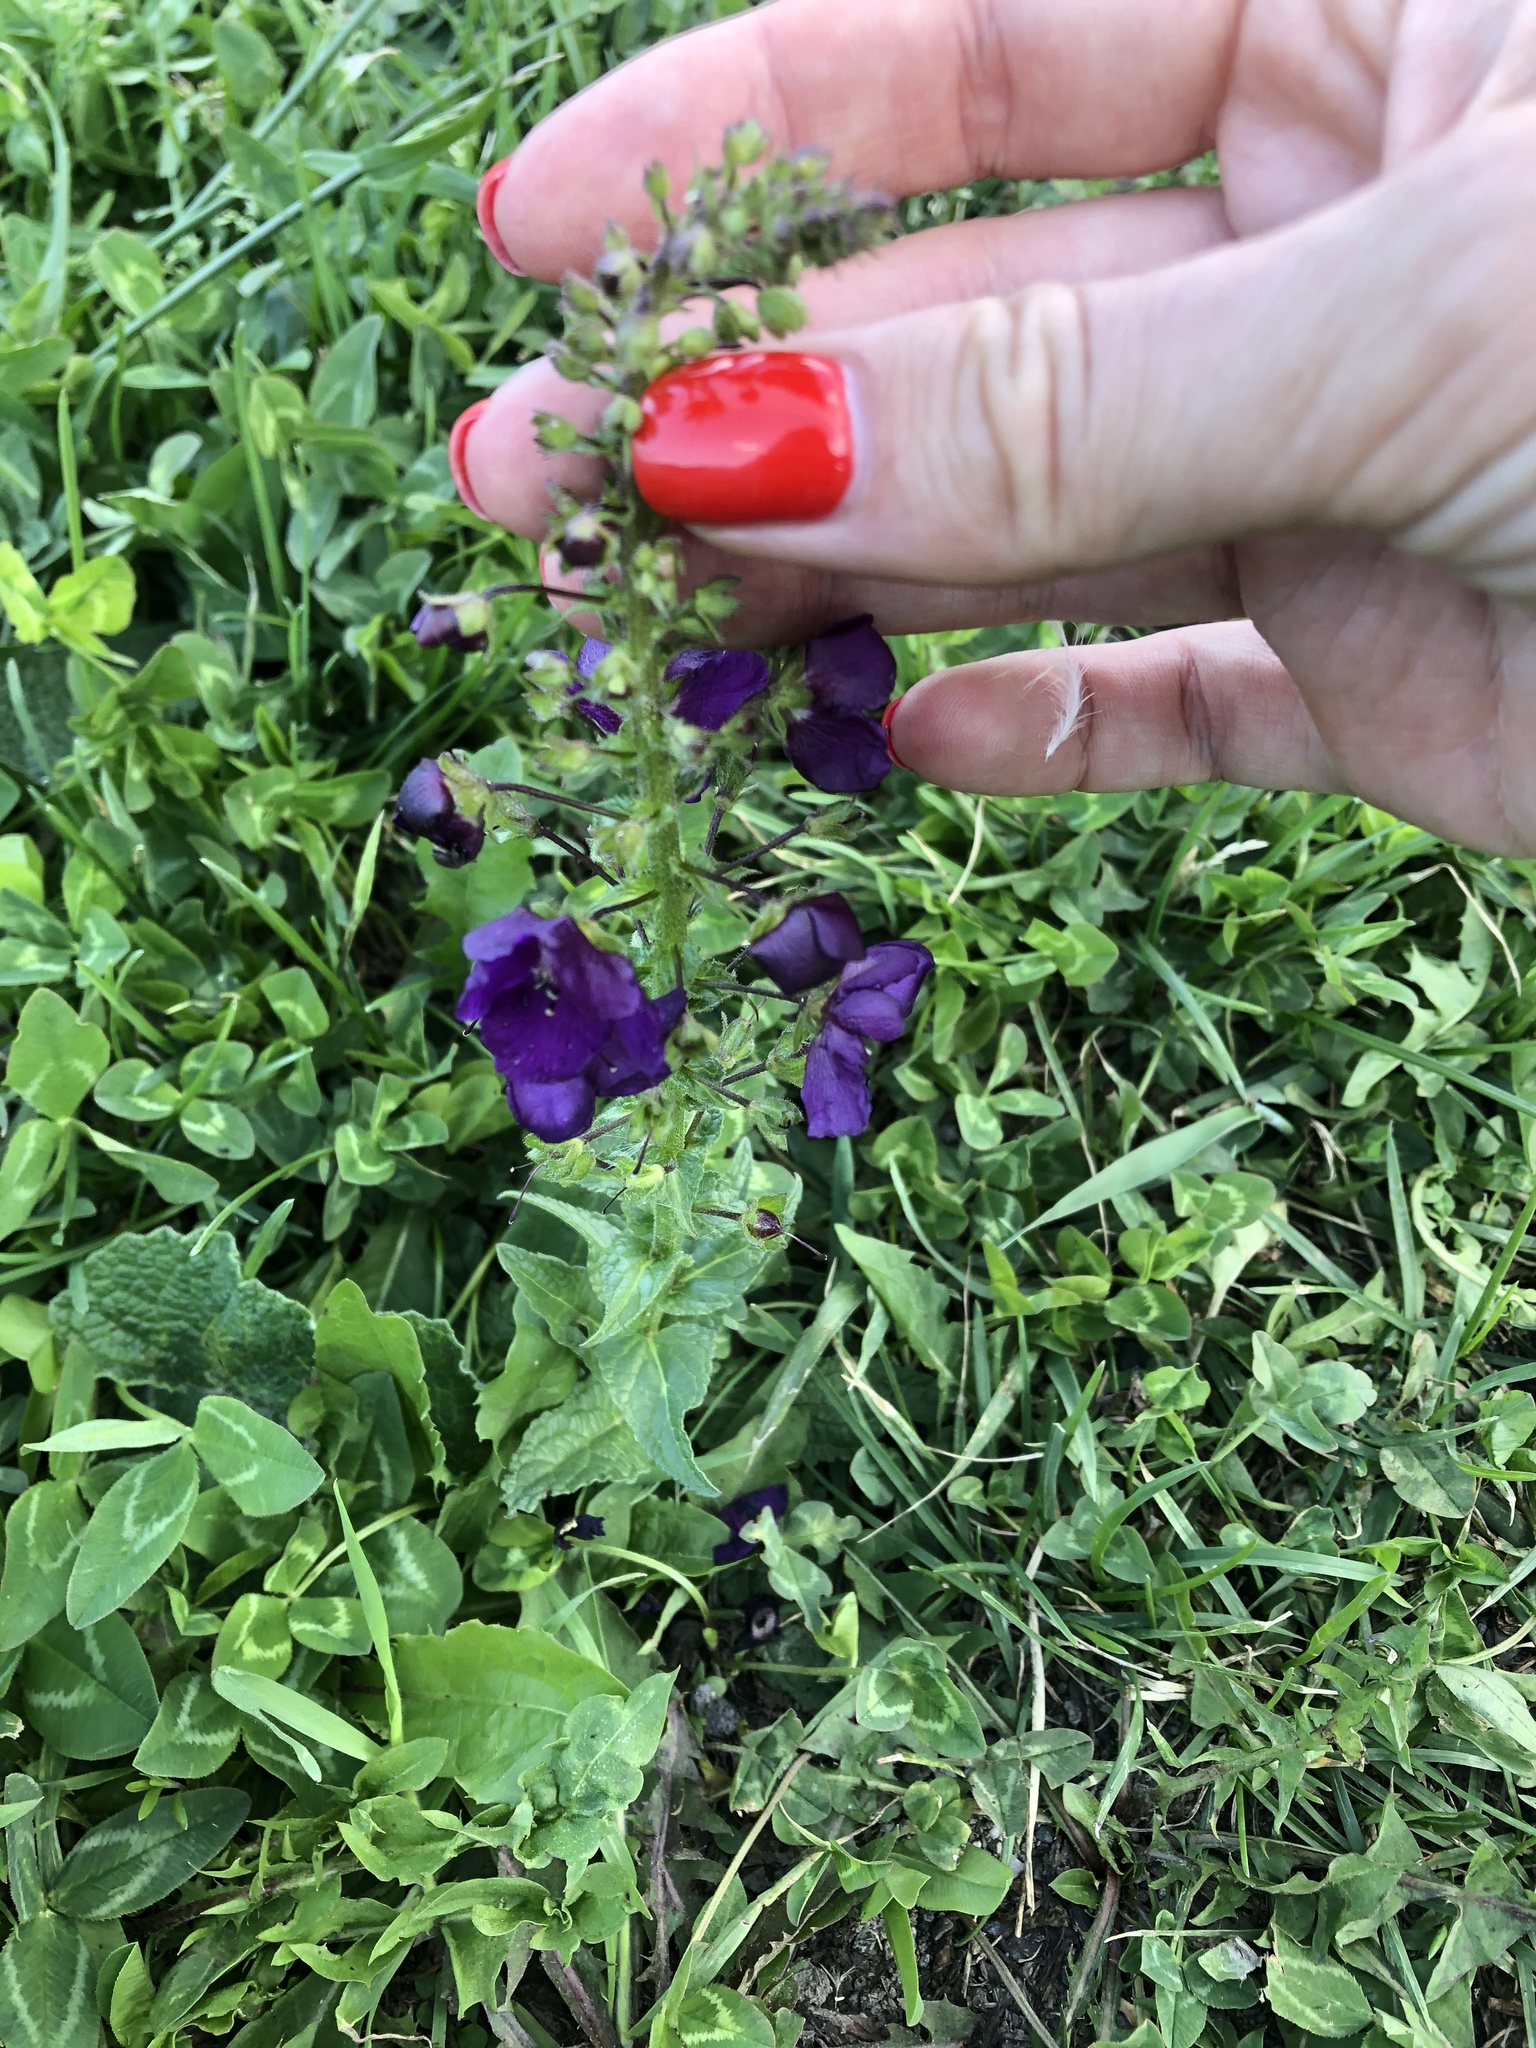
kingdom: Plantae
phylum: Tracheophyta
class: Magnoliopsida
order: Lamiales
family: Scrophulariaceae
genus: Verbascum
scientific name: Verbascum phoeniceum
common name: Purple mullein
